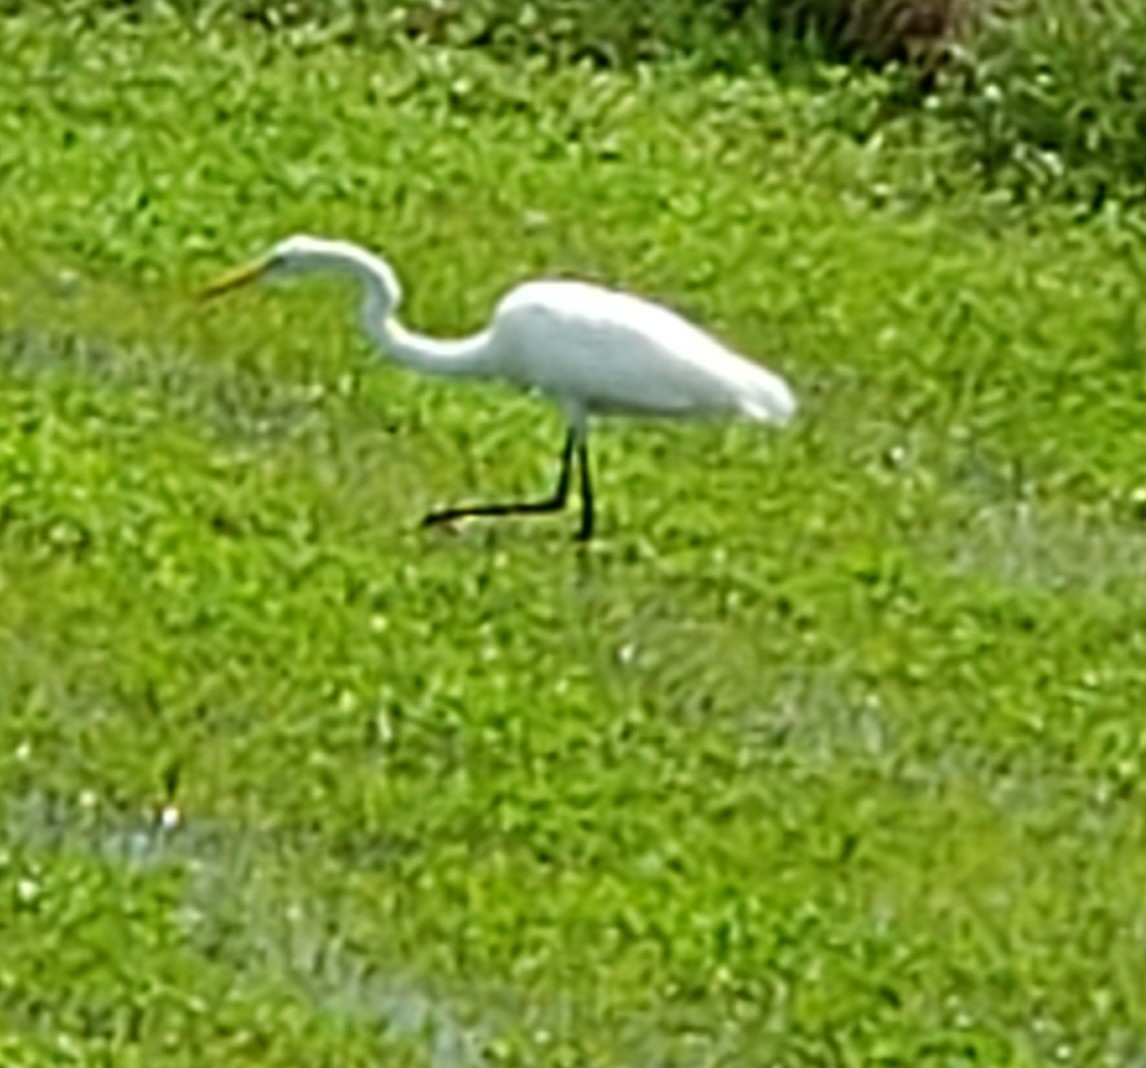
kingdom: Animalia
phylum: Chordata
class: Aves
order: Pelecaniformes
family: Ardeidae
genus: Ardea
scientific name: Ardea alba
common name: Great egret
